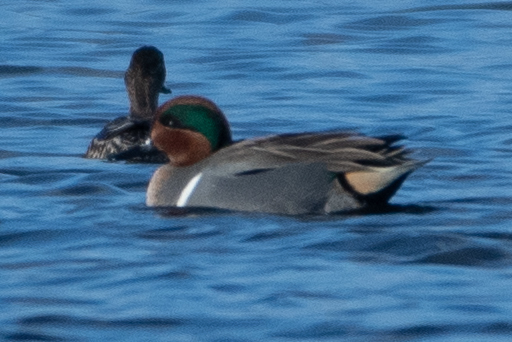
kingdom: Animalia
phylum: Chordata
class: Aves
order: Anseriformes
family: Anatidae
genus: Anas
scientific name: Anas crecca
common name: Eurasian teal
